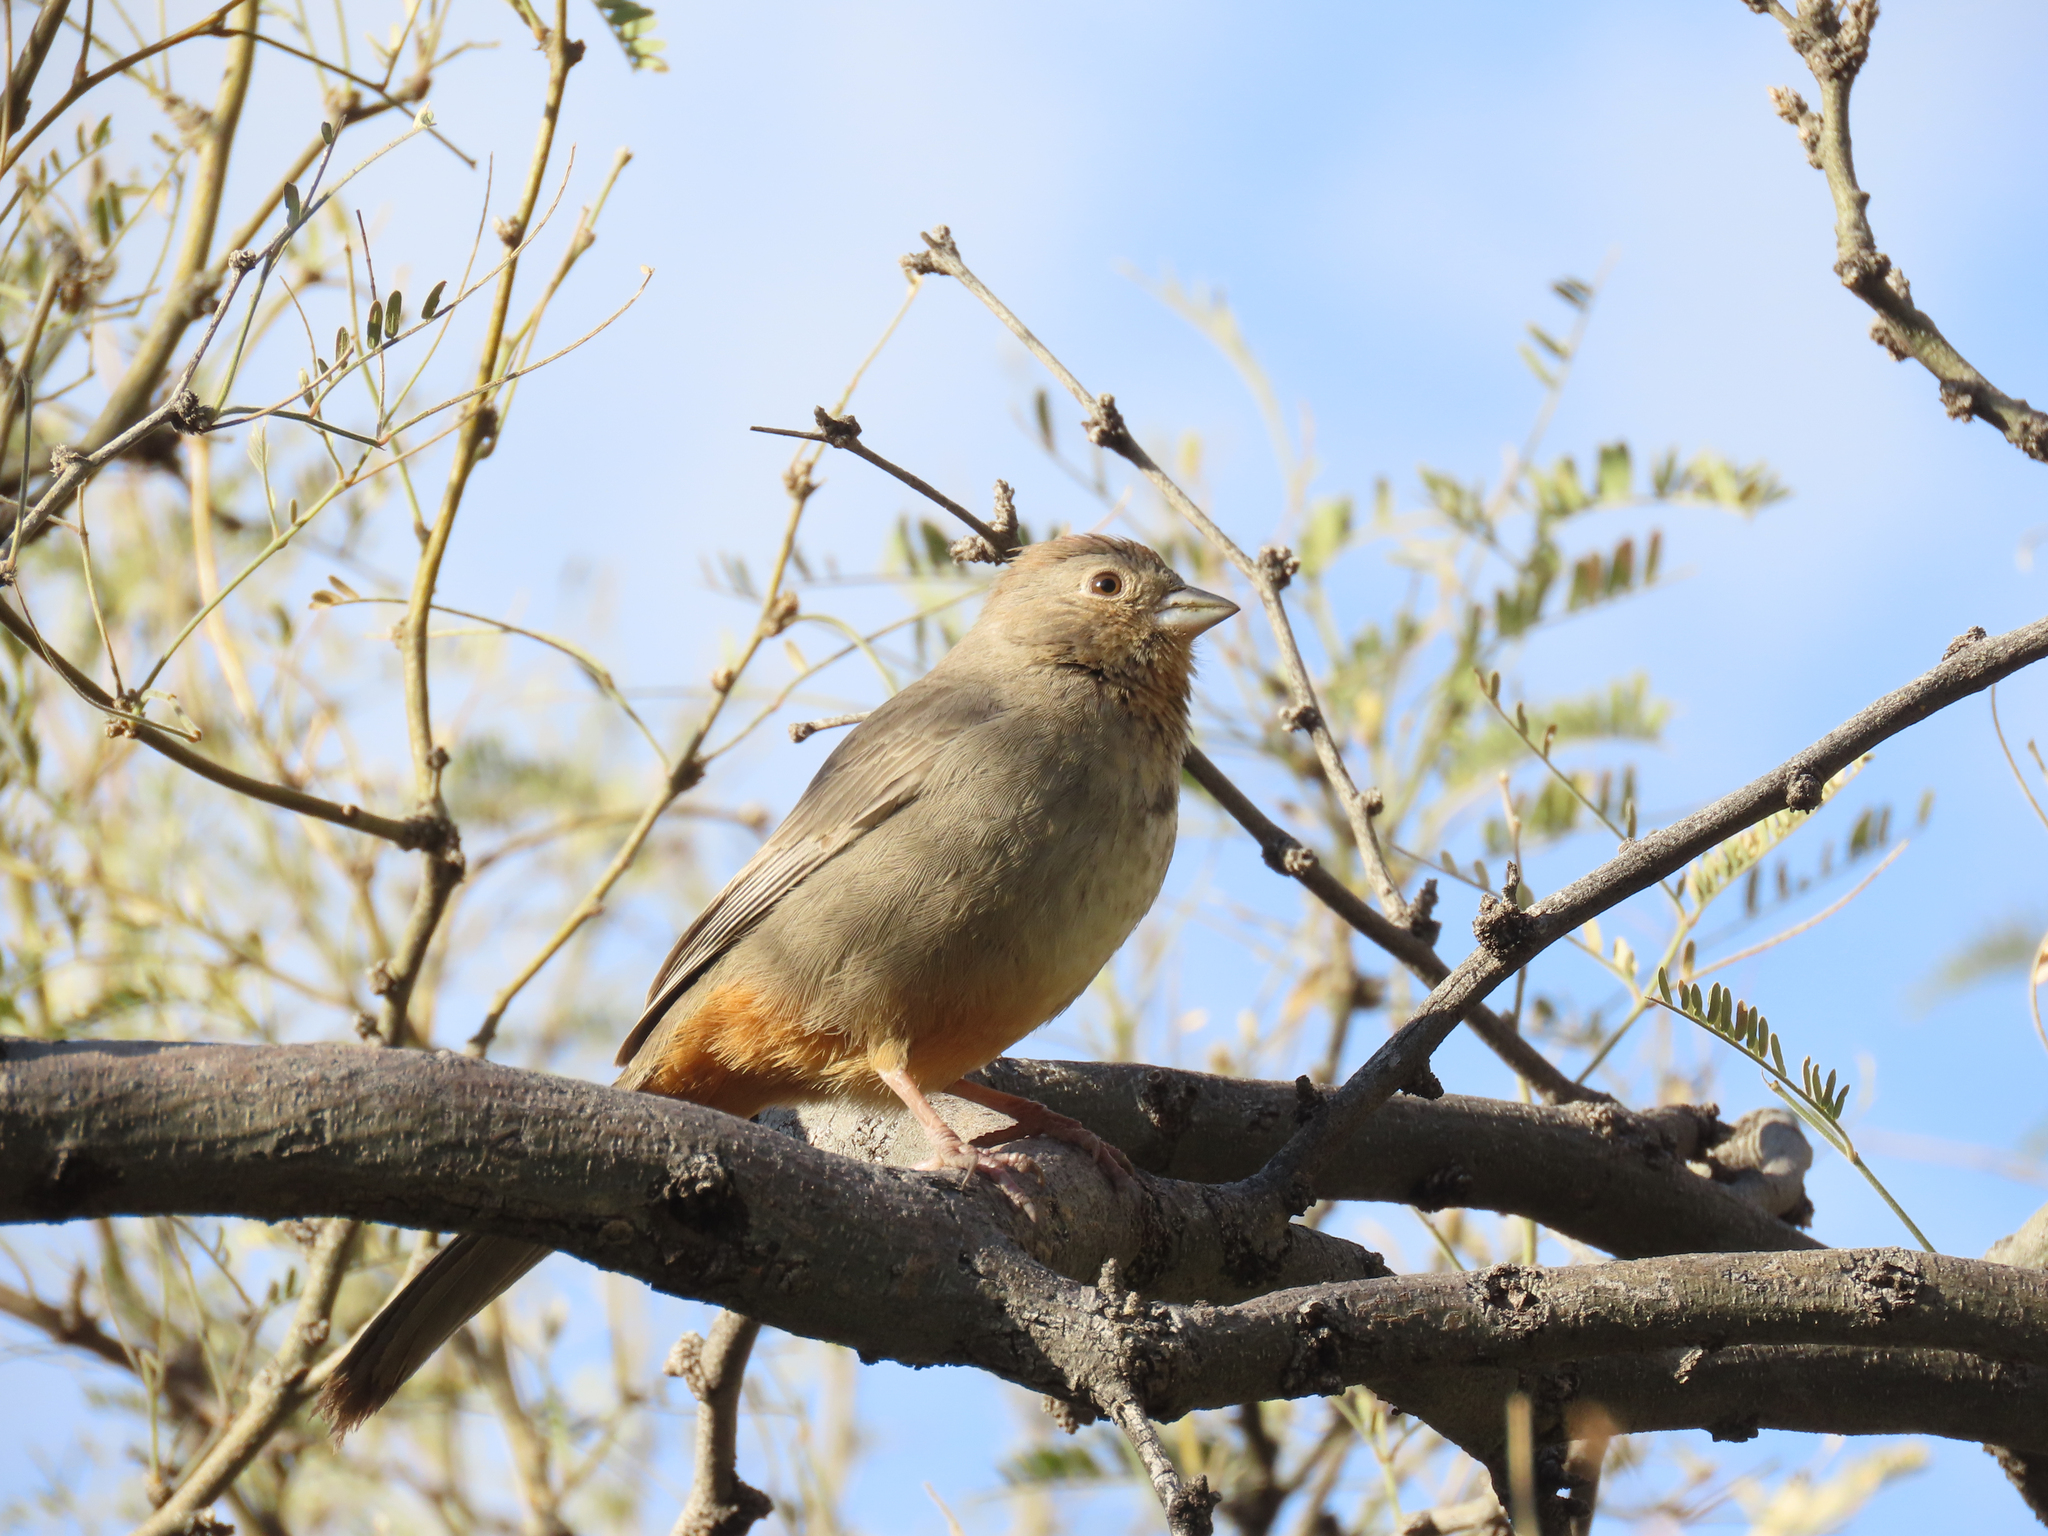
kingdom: Animalia
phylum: Chordata
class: Aves
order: Passeriformes
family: Passerellidae
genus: Melozone
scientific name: Melozone fusca
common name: Canyon towhee
